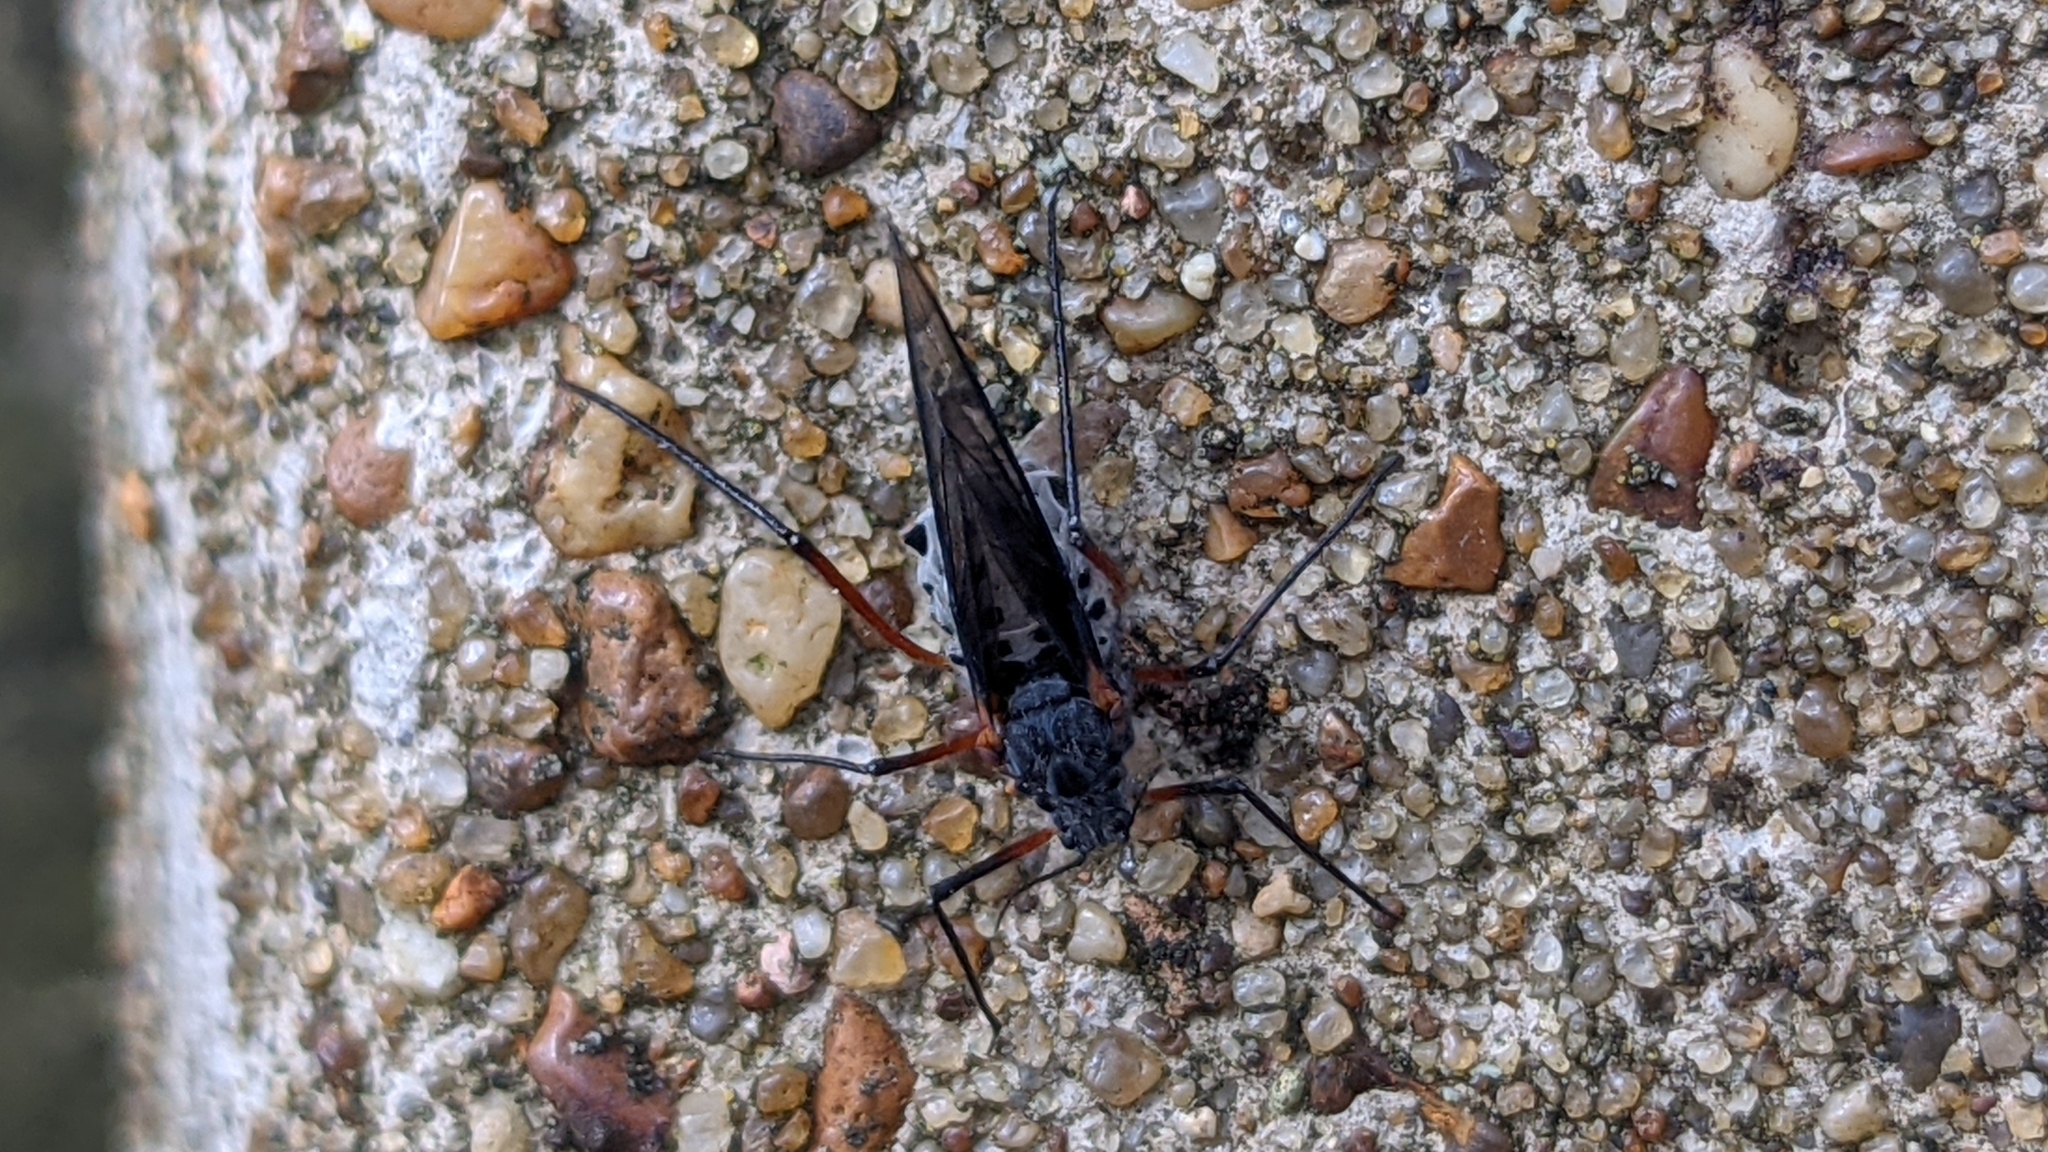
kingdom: Animalia
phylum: Arthropoda
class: Insecta
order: Hemiptera
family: Aphididae
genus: Longistigma
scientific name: Longistigma caryae
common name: Giant bark aphid
